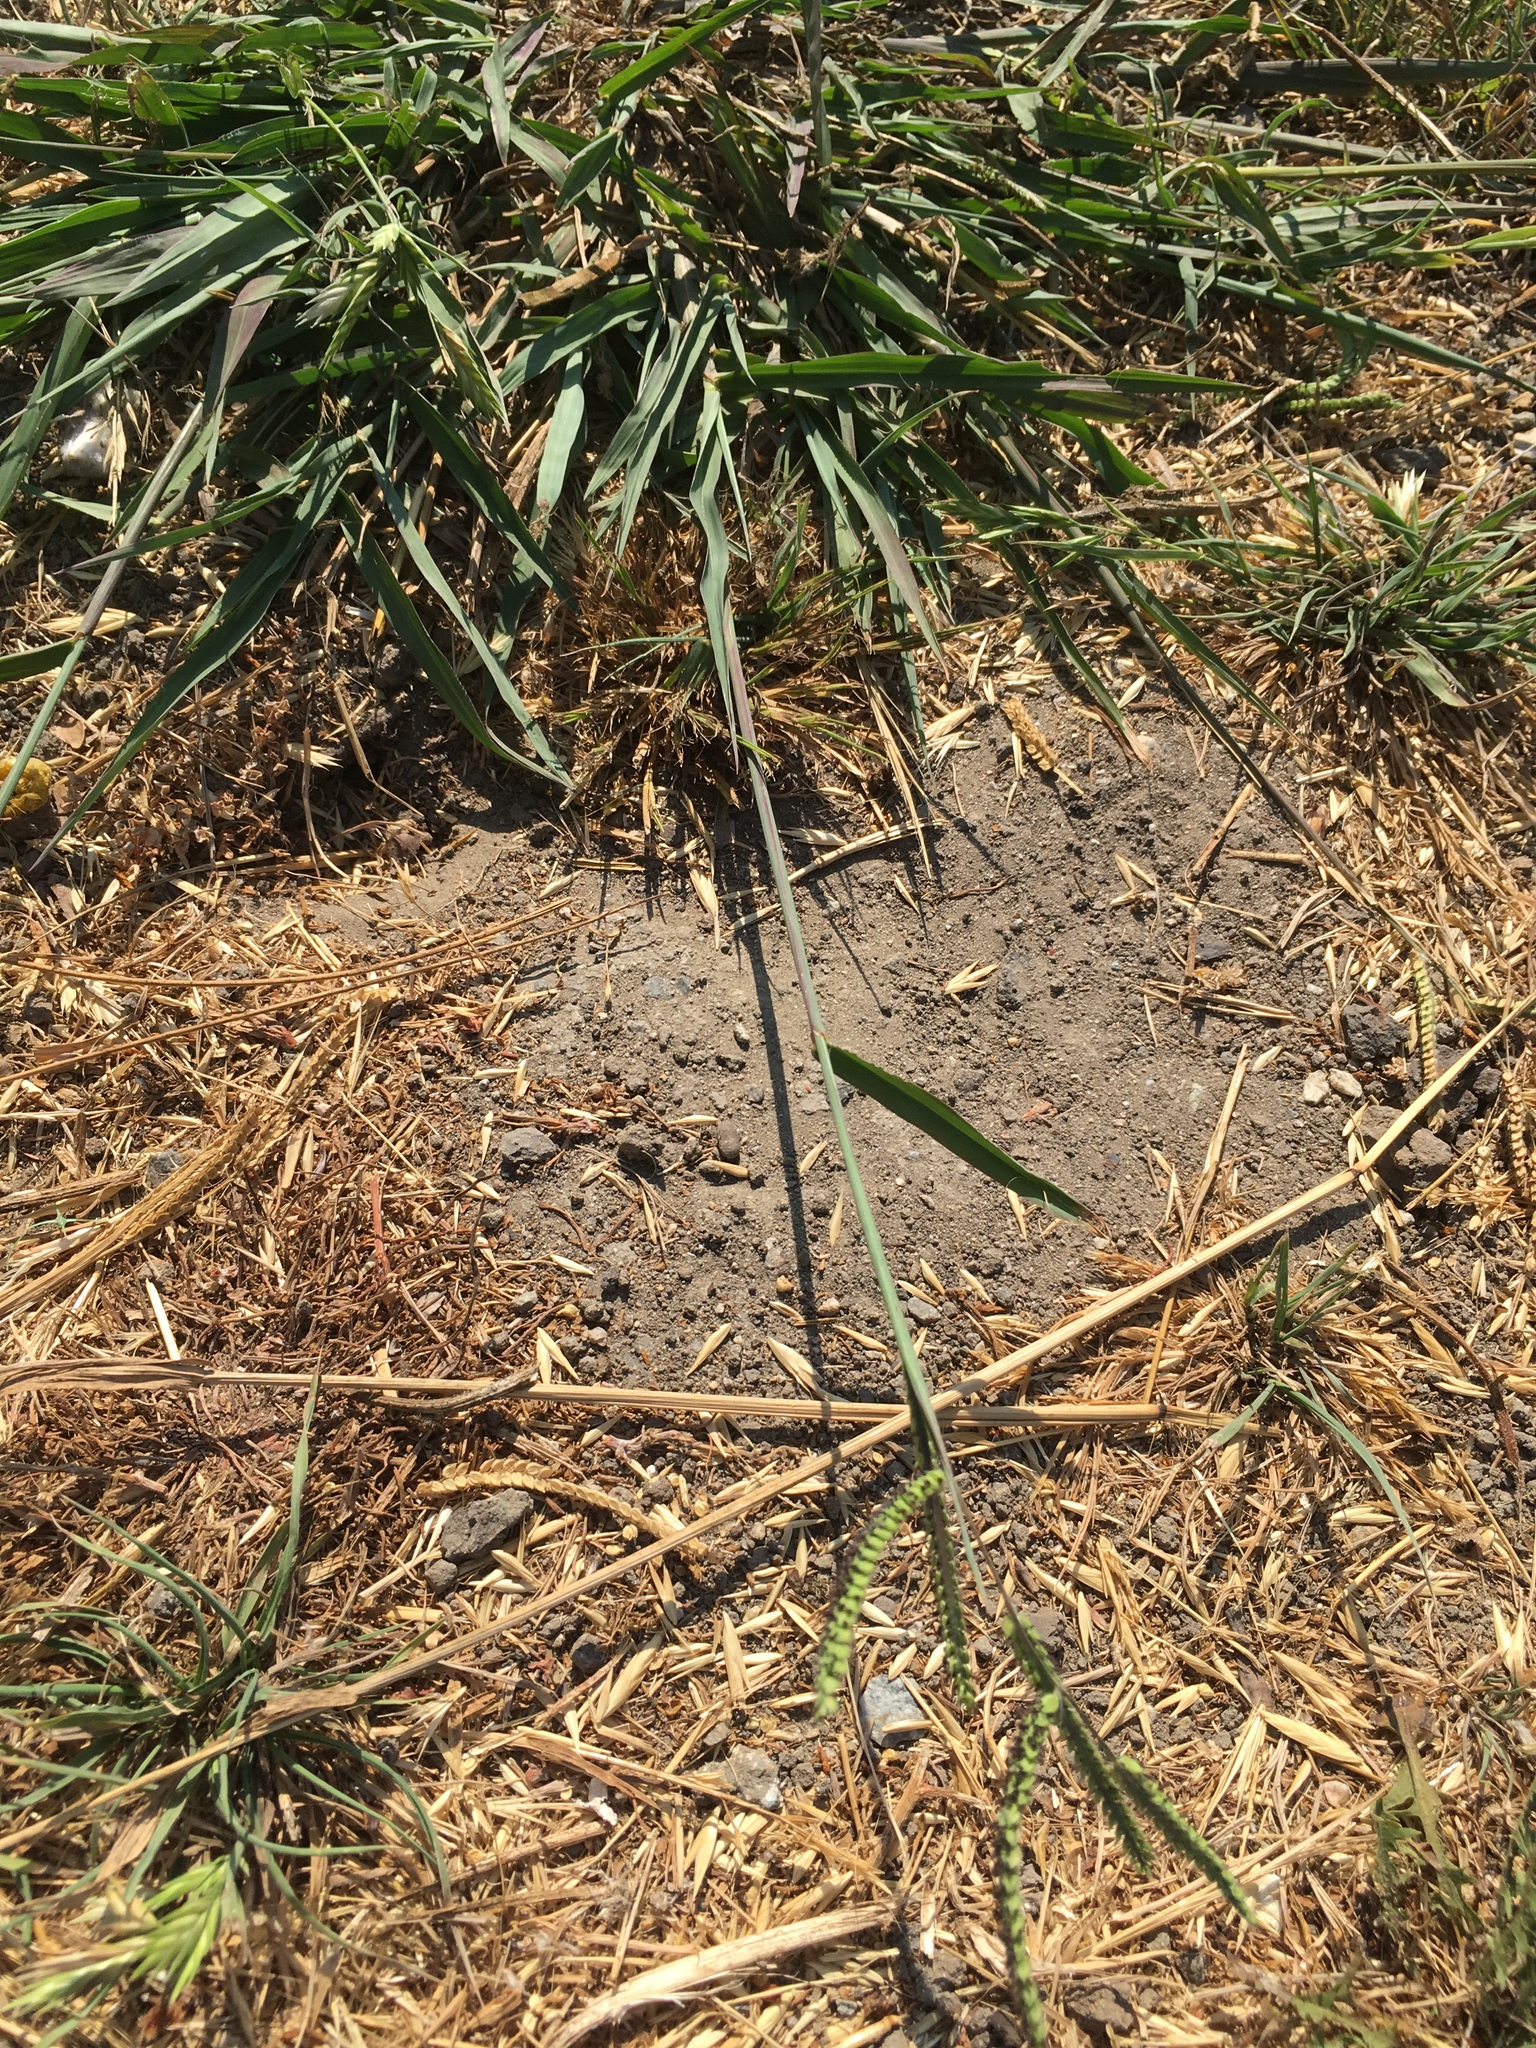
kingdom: Plantae
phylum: Tracheophyta
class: Liliopsida
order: Poales
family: Poaceae
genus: Paspalum
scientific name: Paspalum dilatatum
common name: Dallisgrass
